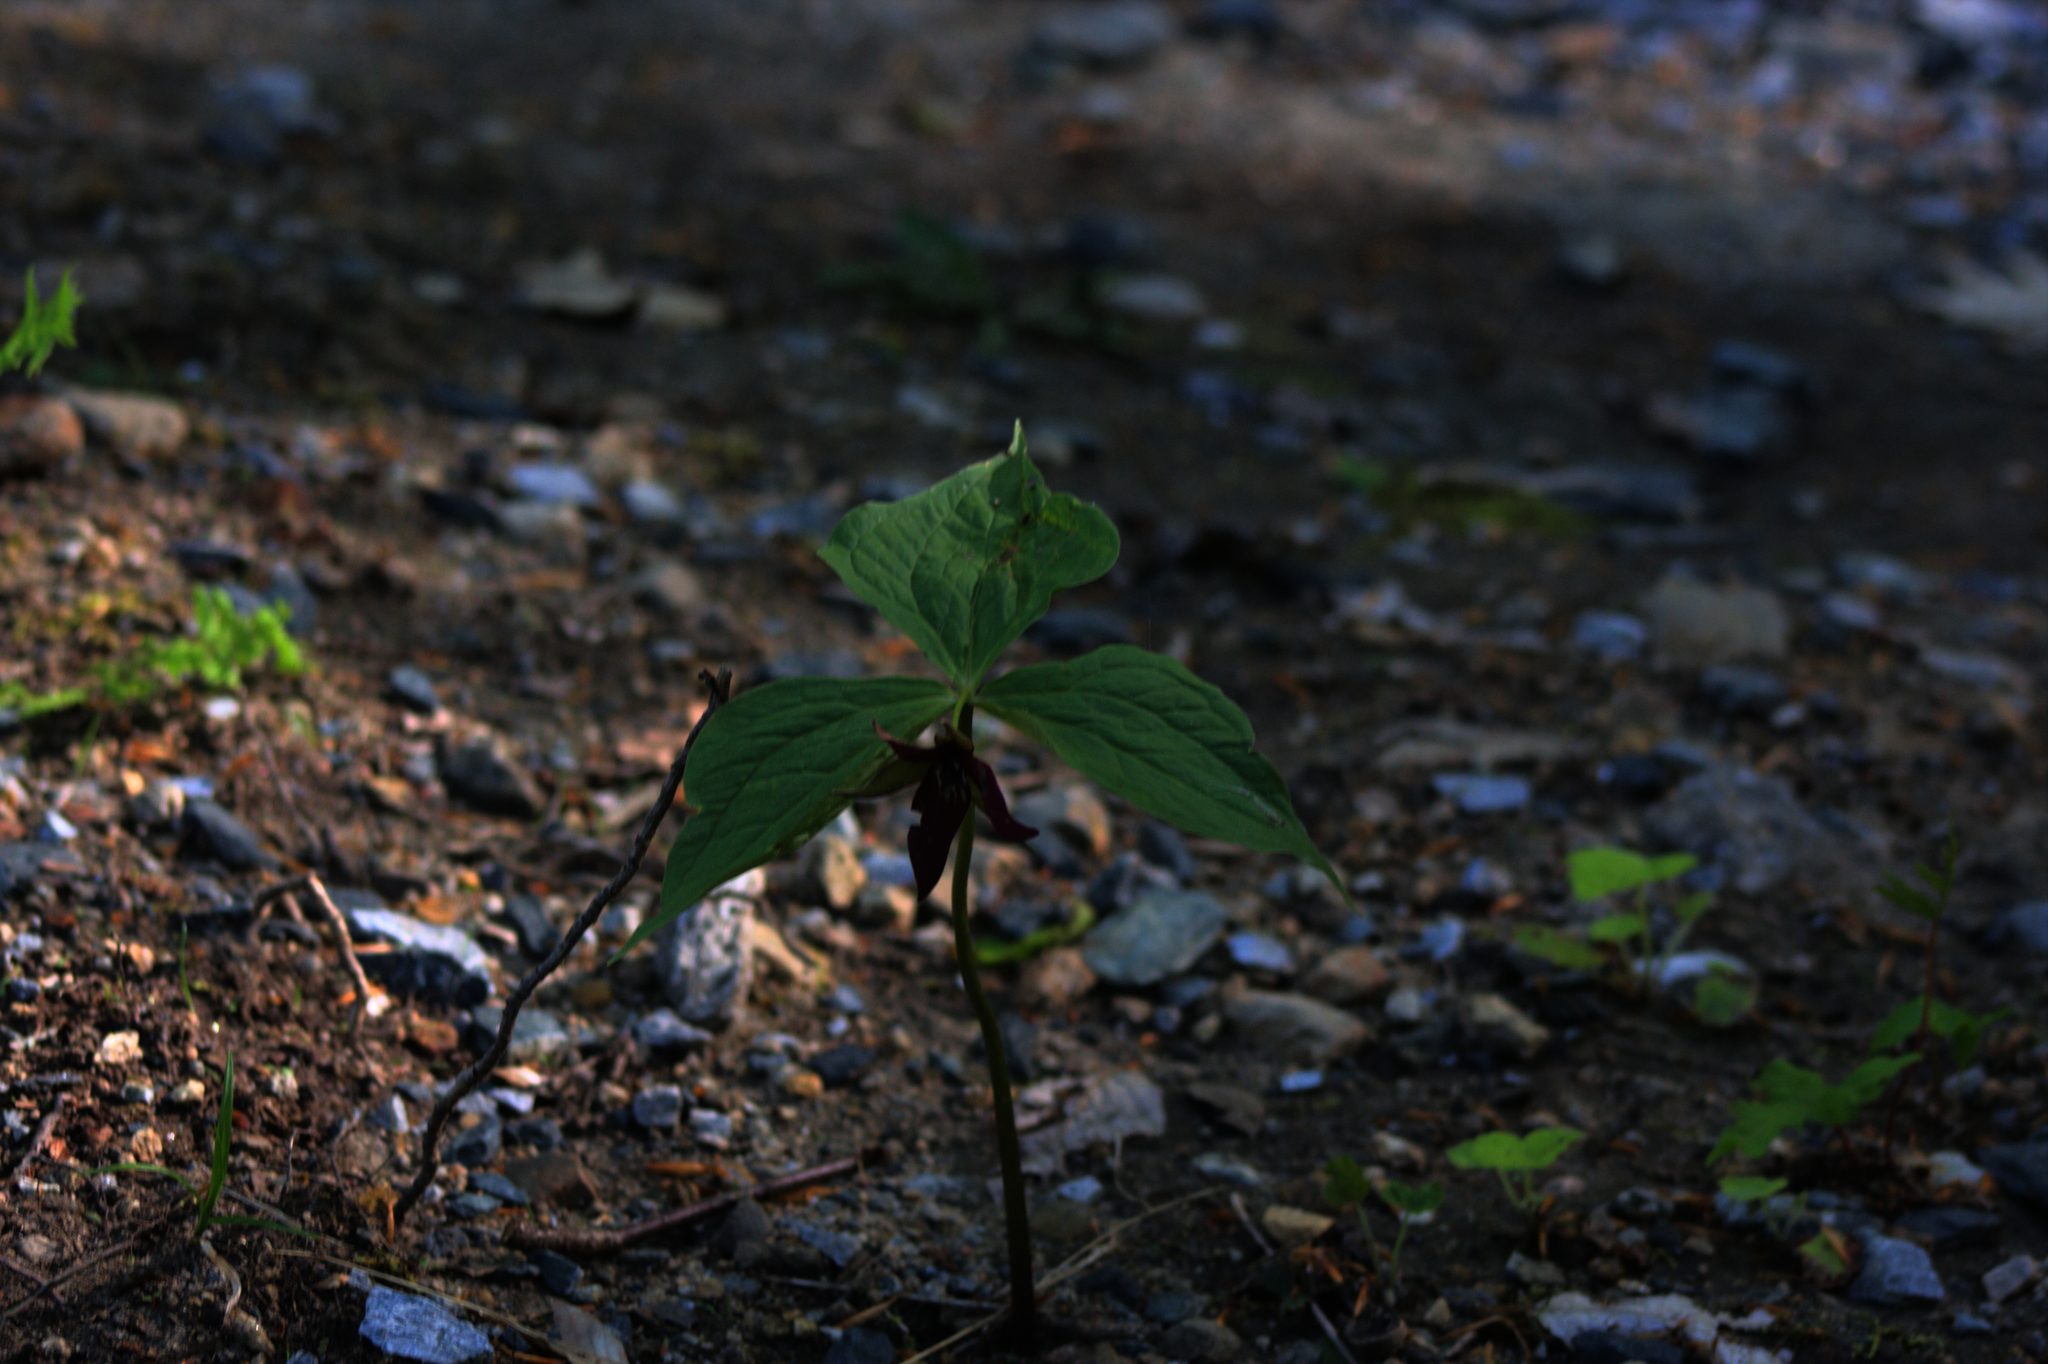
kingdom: Plantae
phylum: Tracheophyta
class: Liliopsida
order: Liliales
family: Melanthiaceae
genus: Trillium
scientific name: Trillium erectum
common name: Purple trillium
